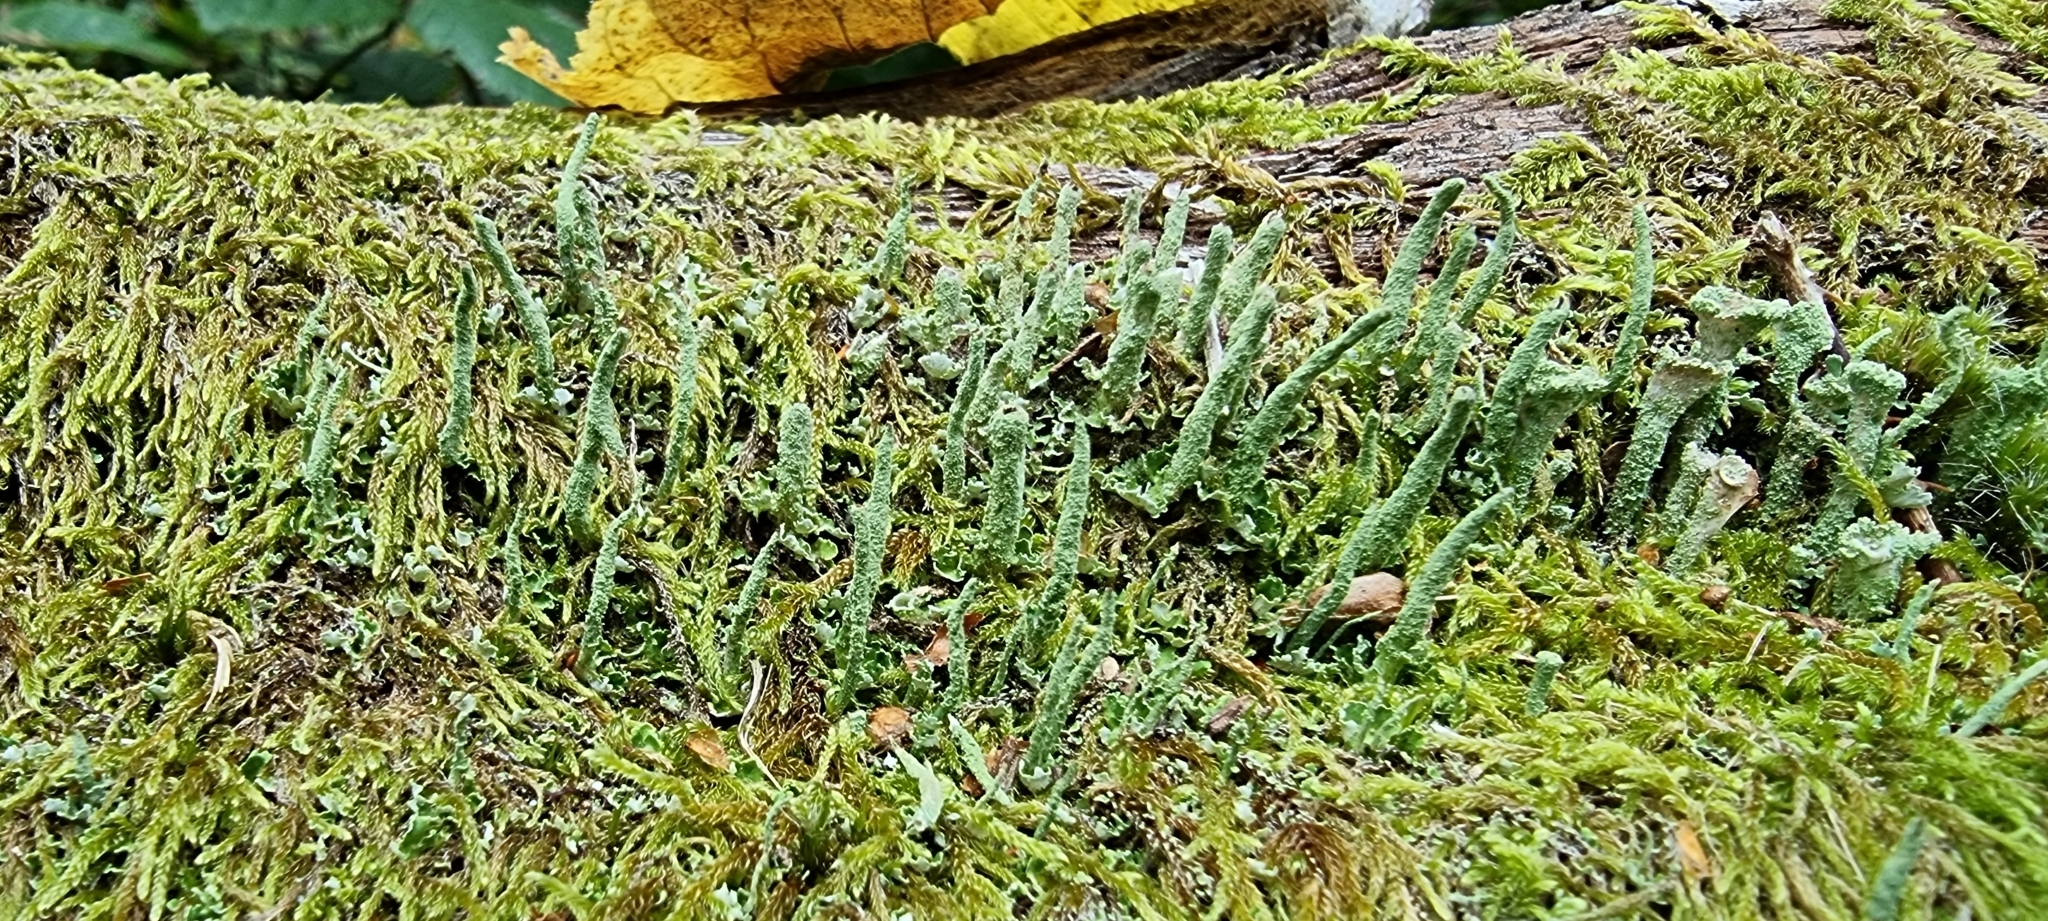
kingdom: Fungi
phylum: Ascomycota
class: Lecanoromycetes
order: Lecanorales
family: Cladoniaceae
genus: Cladonia
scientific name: Cladonia coniocraea
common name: Common powderhorn
